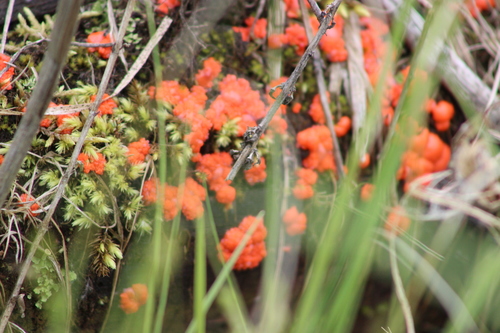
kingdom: Protozoa
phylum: Mycetozoa
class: Myxomycetes
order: Cribrariales
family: Tubiferaceae
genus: Tubifera
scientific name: Tubifera ferruginosa
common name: Red raspberry slime mold
